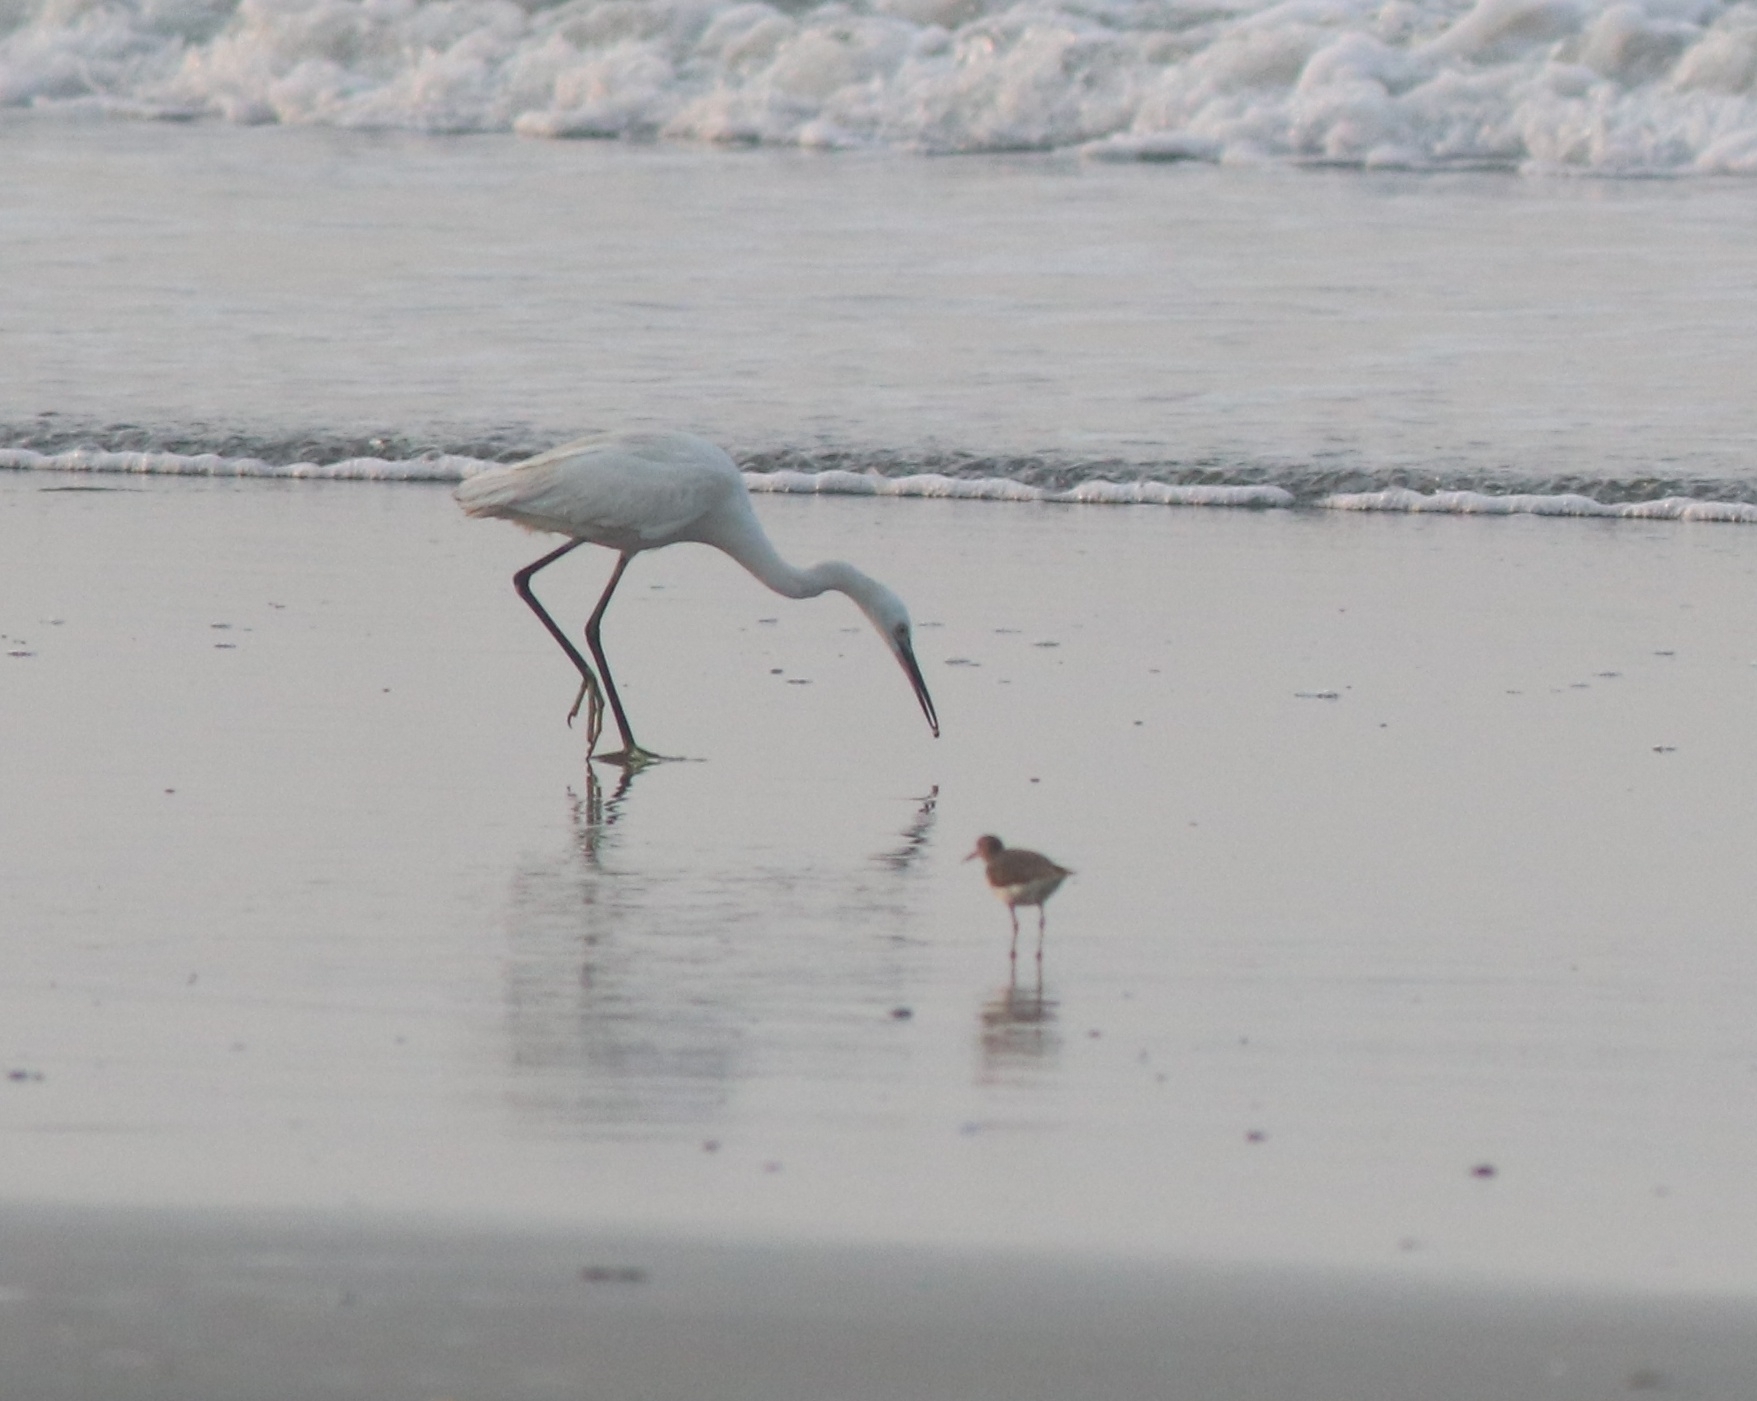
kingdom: Animalia
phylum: Chordata
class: Aves
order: Pelecaniformes
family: Ardeidae
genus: Egretta
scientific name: Egretta gularis
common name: Western reef-heron
